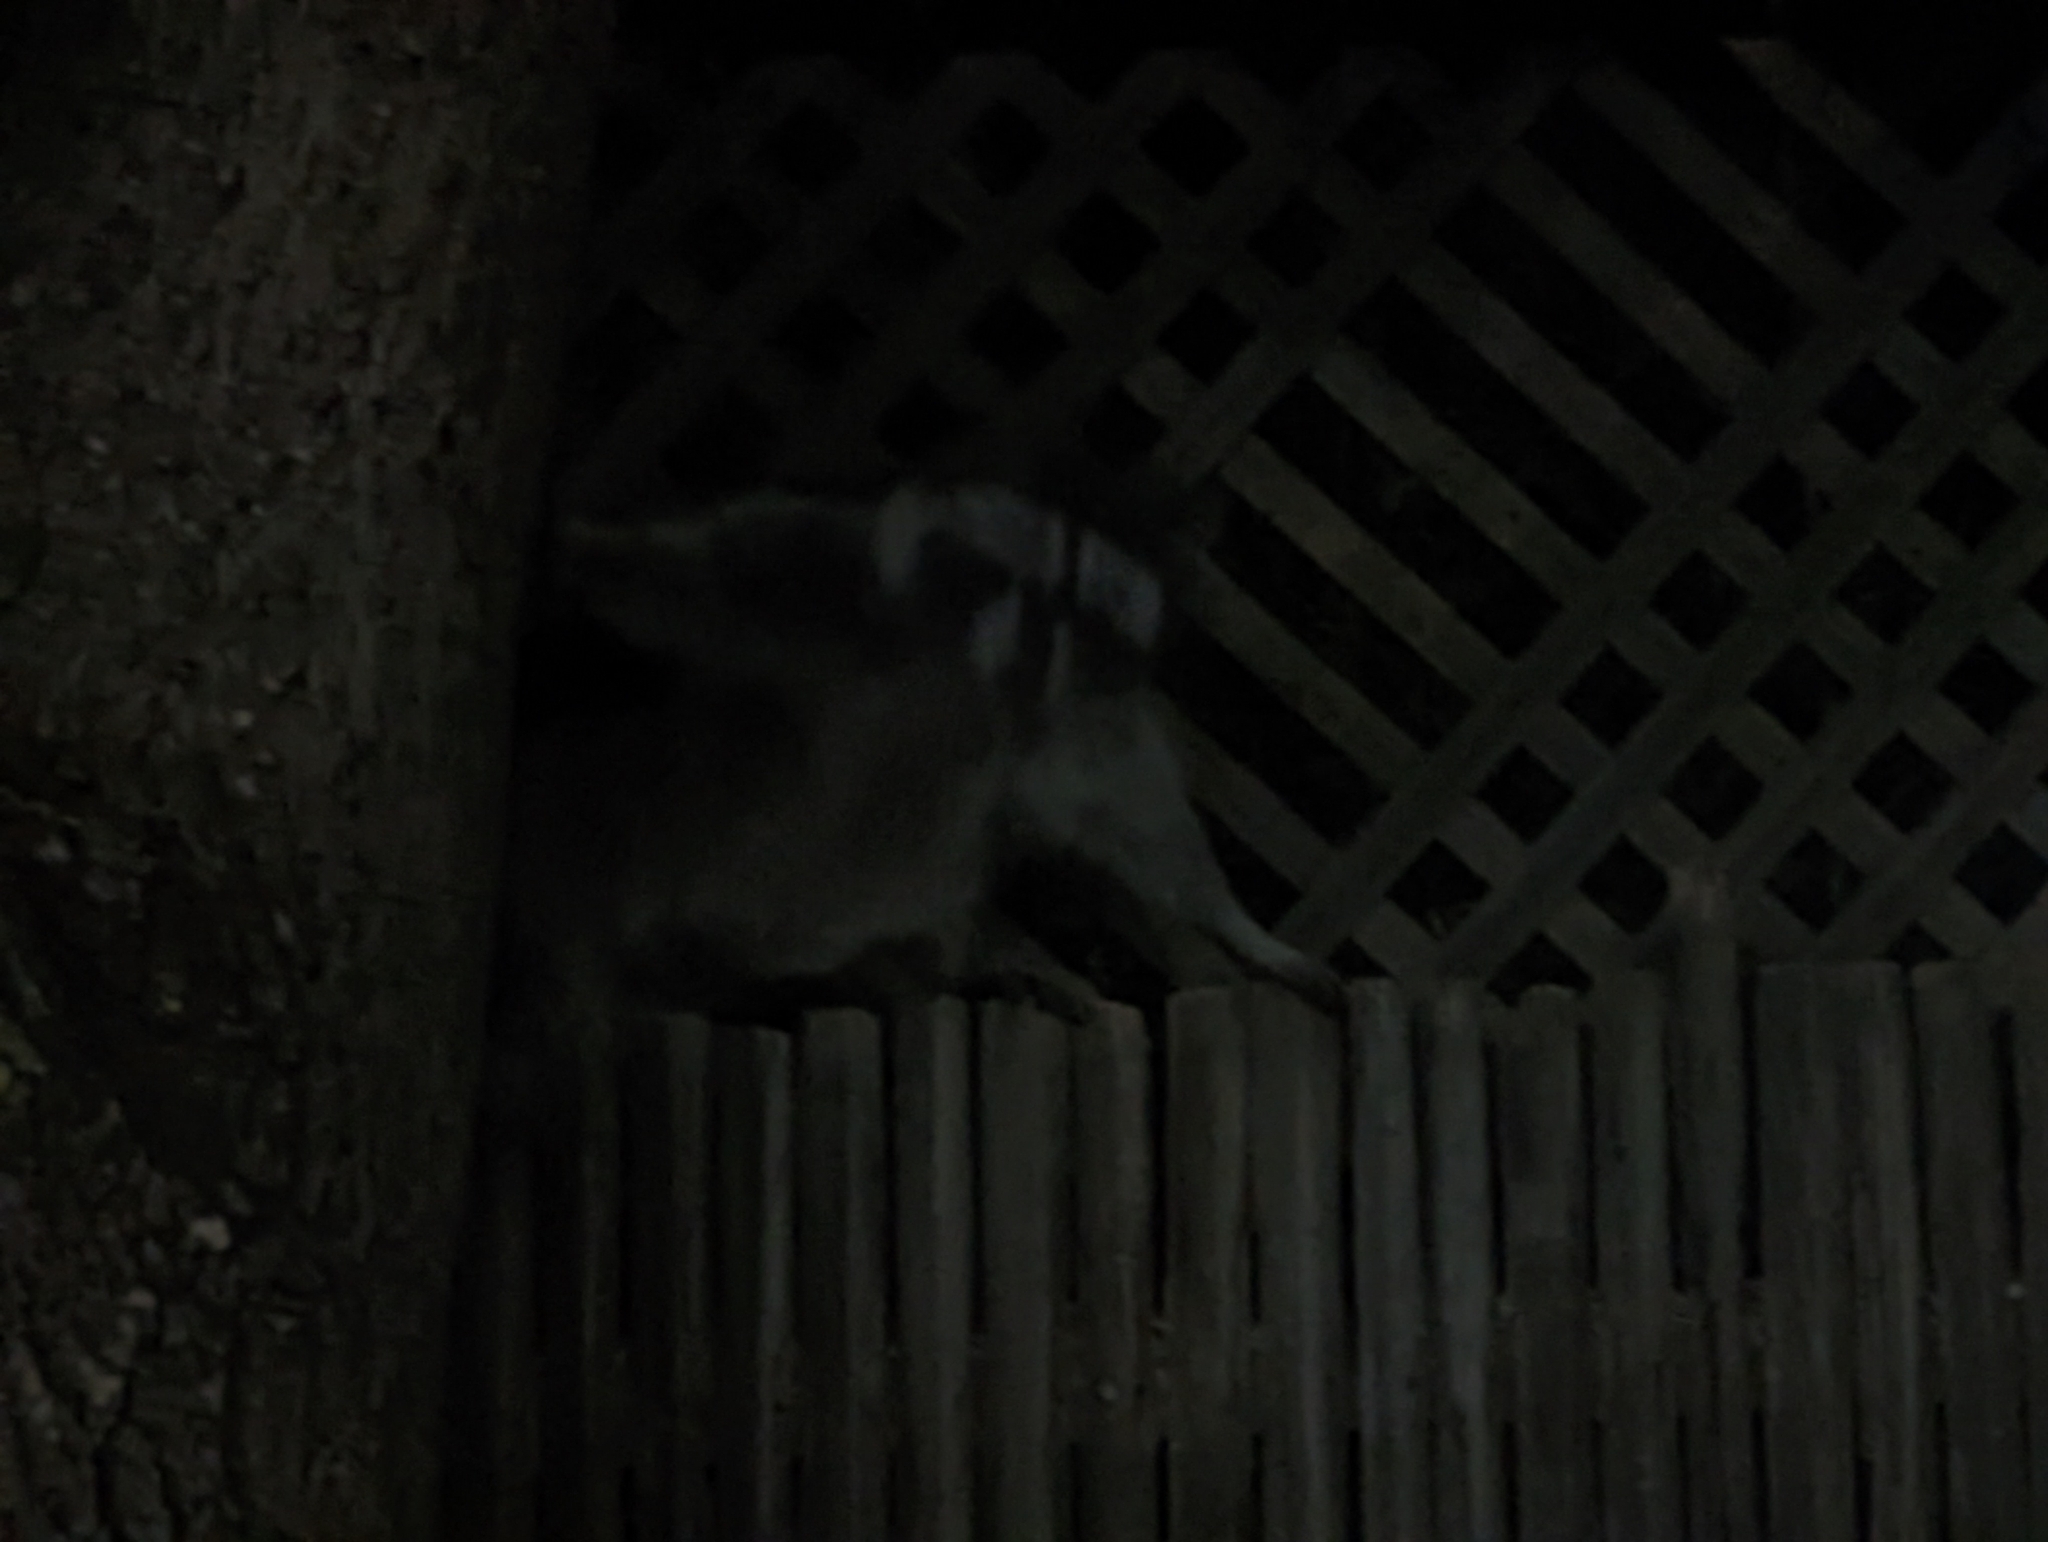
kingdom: Animalia
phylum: Chordata
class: Mammalia
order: Carnivora
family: Procyonidae
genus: Procyon
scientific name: Procyon lotor
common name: Raccoon
